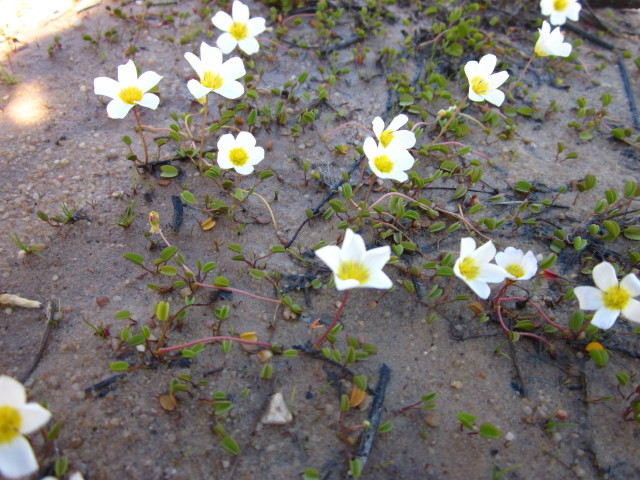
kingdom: Plantae
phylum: Tracheophyta
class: Magnoliopsida
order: Oxalidales
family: Oxalidaceae
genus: Oxalis
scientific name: Oxalis dregei
